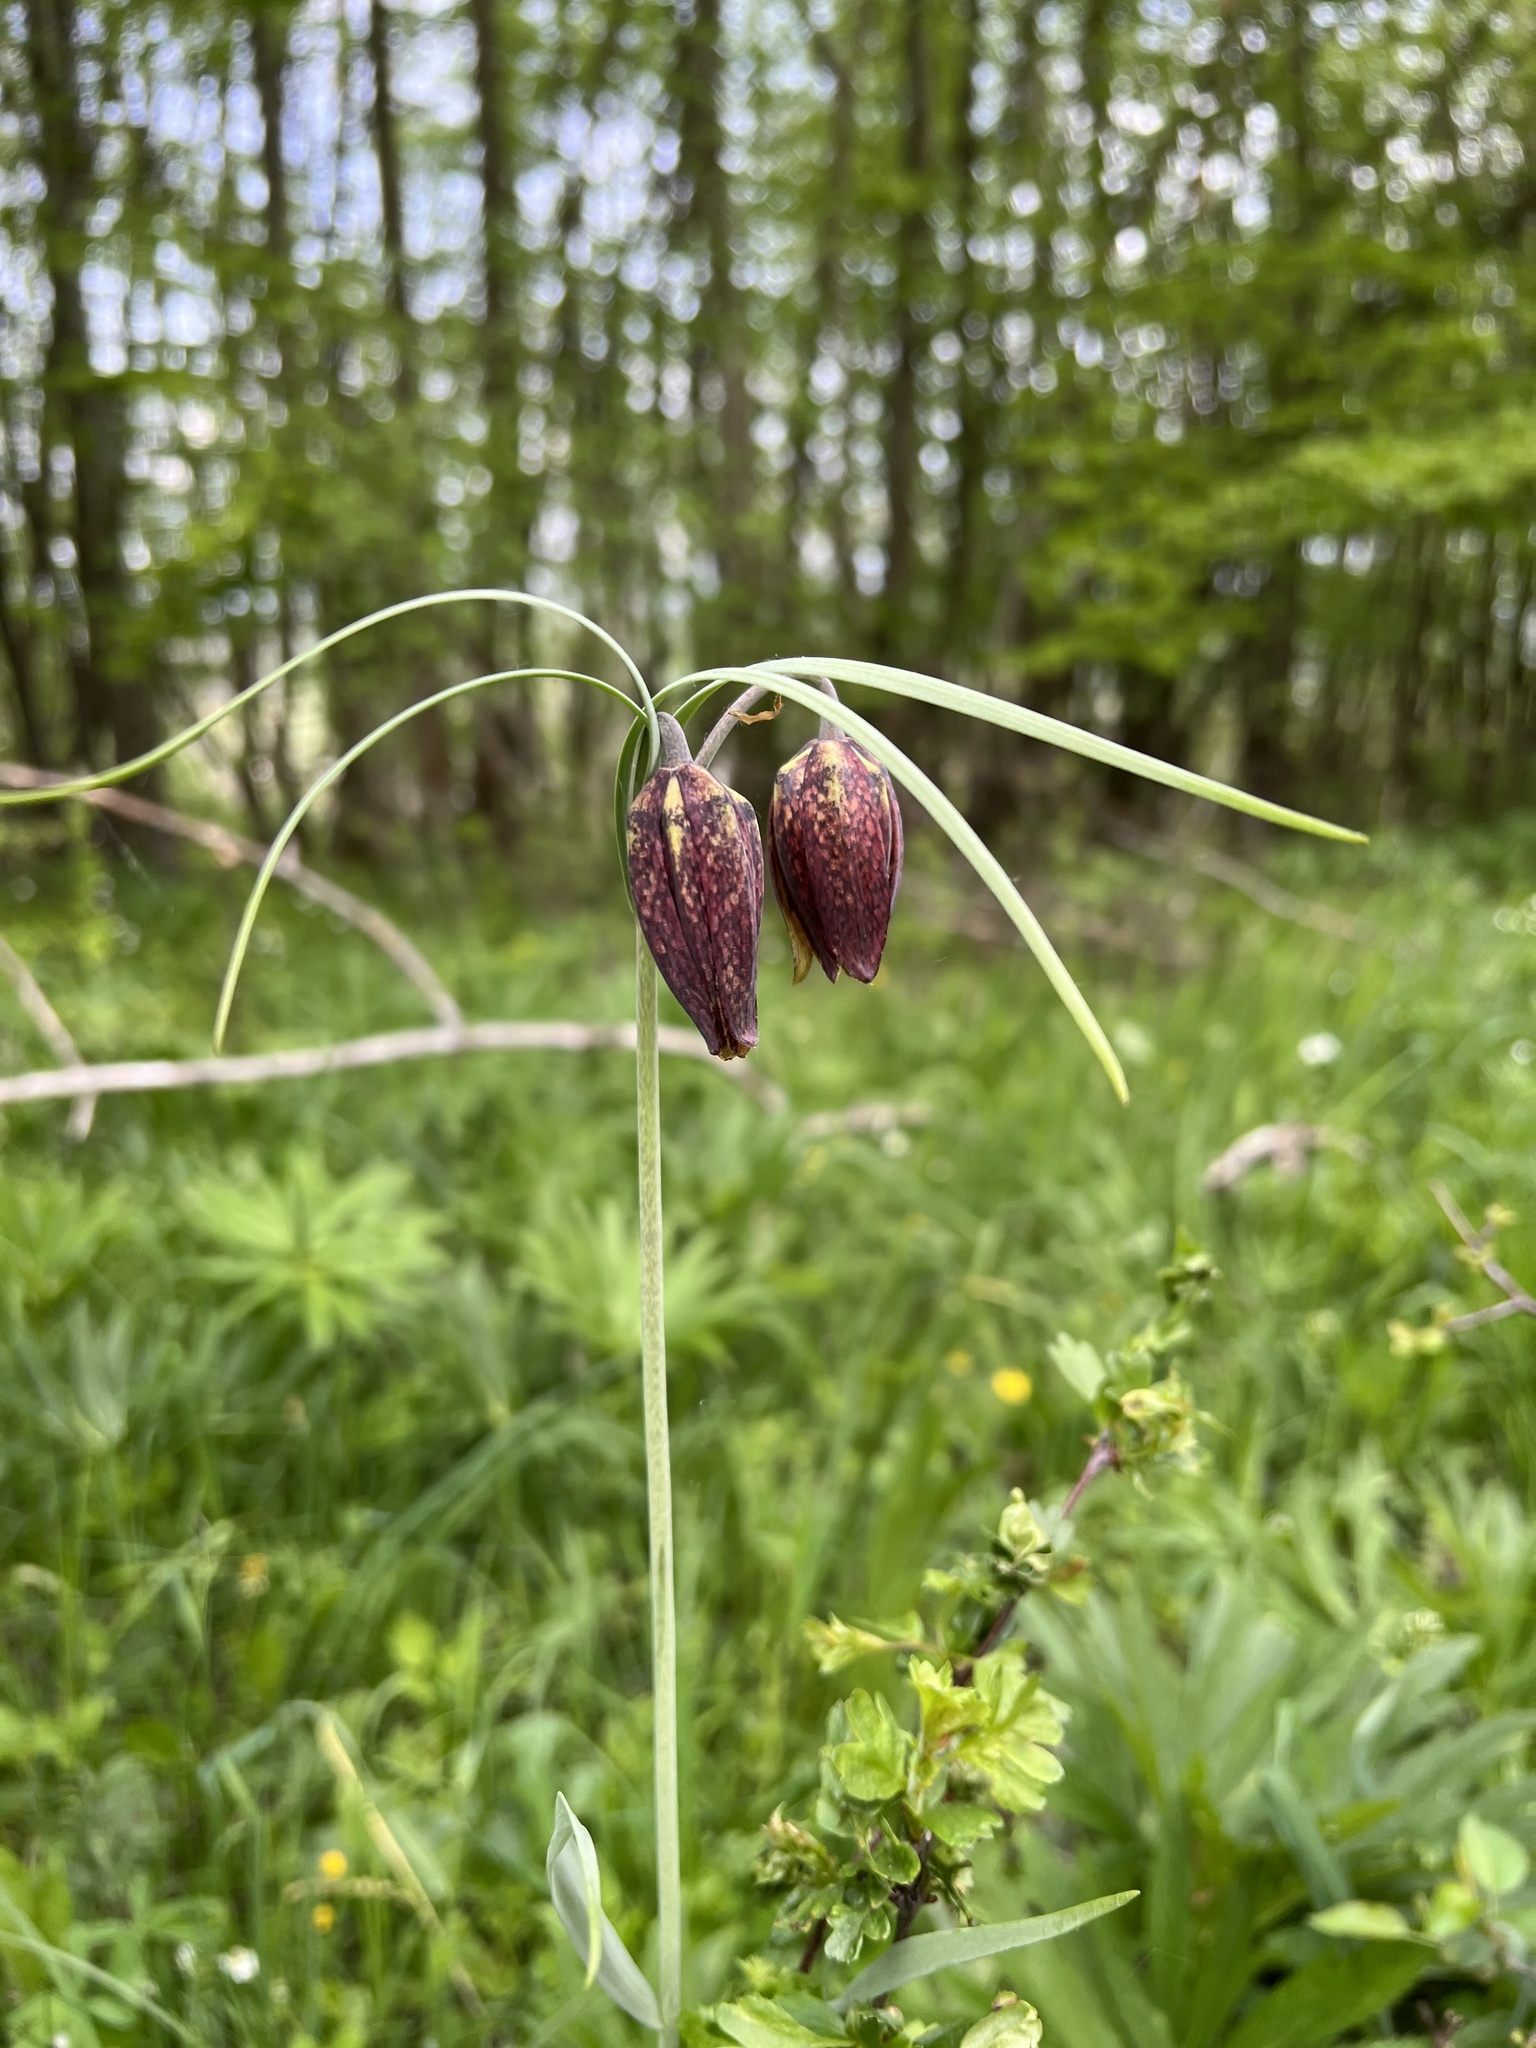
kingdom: Plantae
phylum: Tracheophyta
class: Liliopsida
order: Liliales
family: Liliaceae
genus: Fritillaria
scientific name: Fritillaria montana
